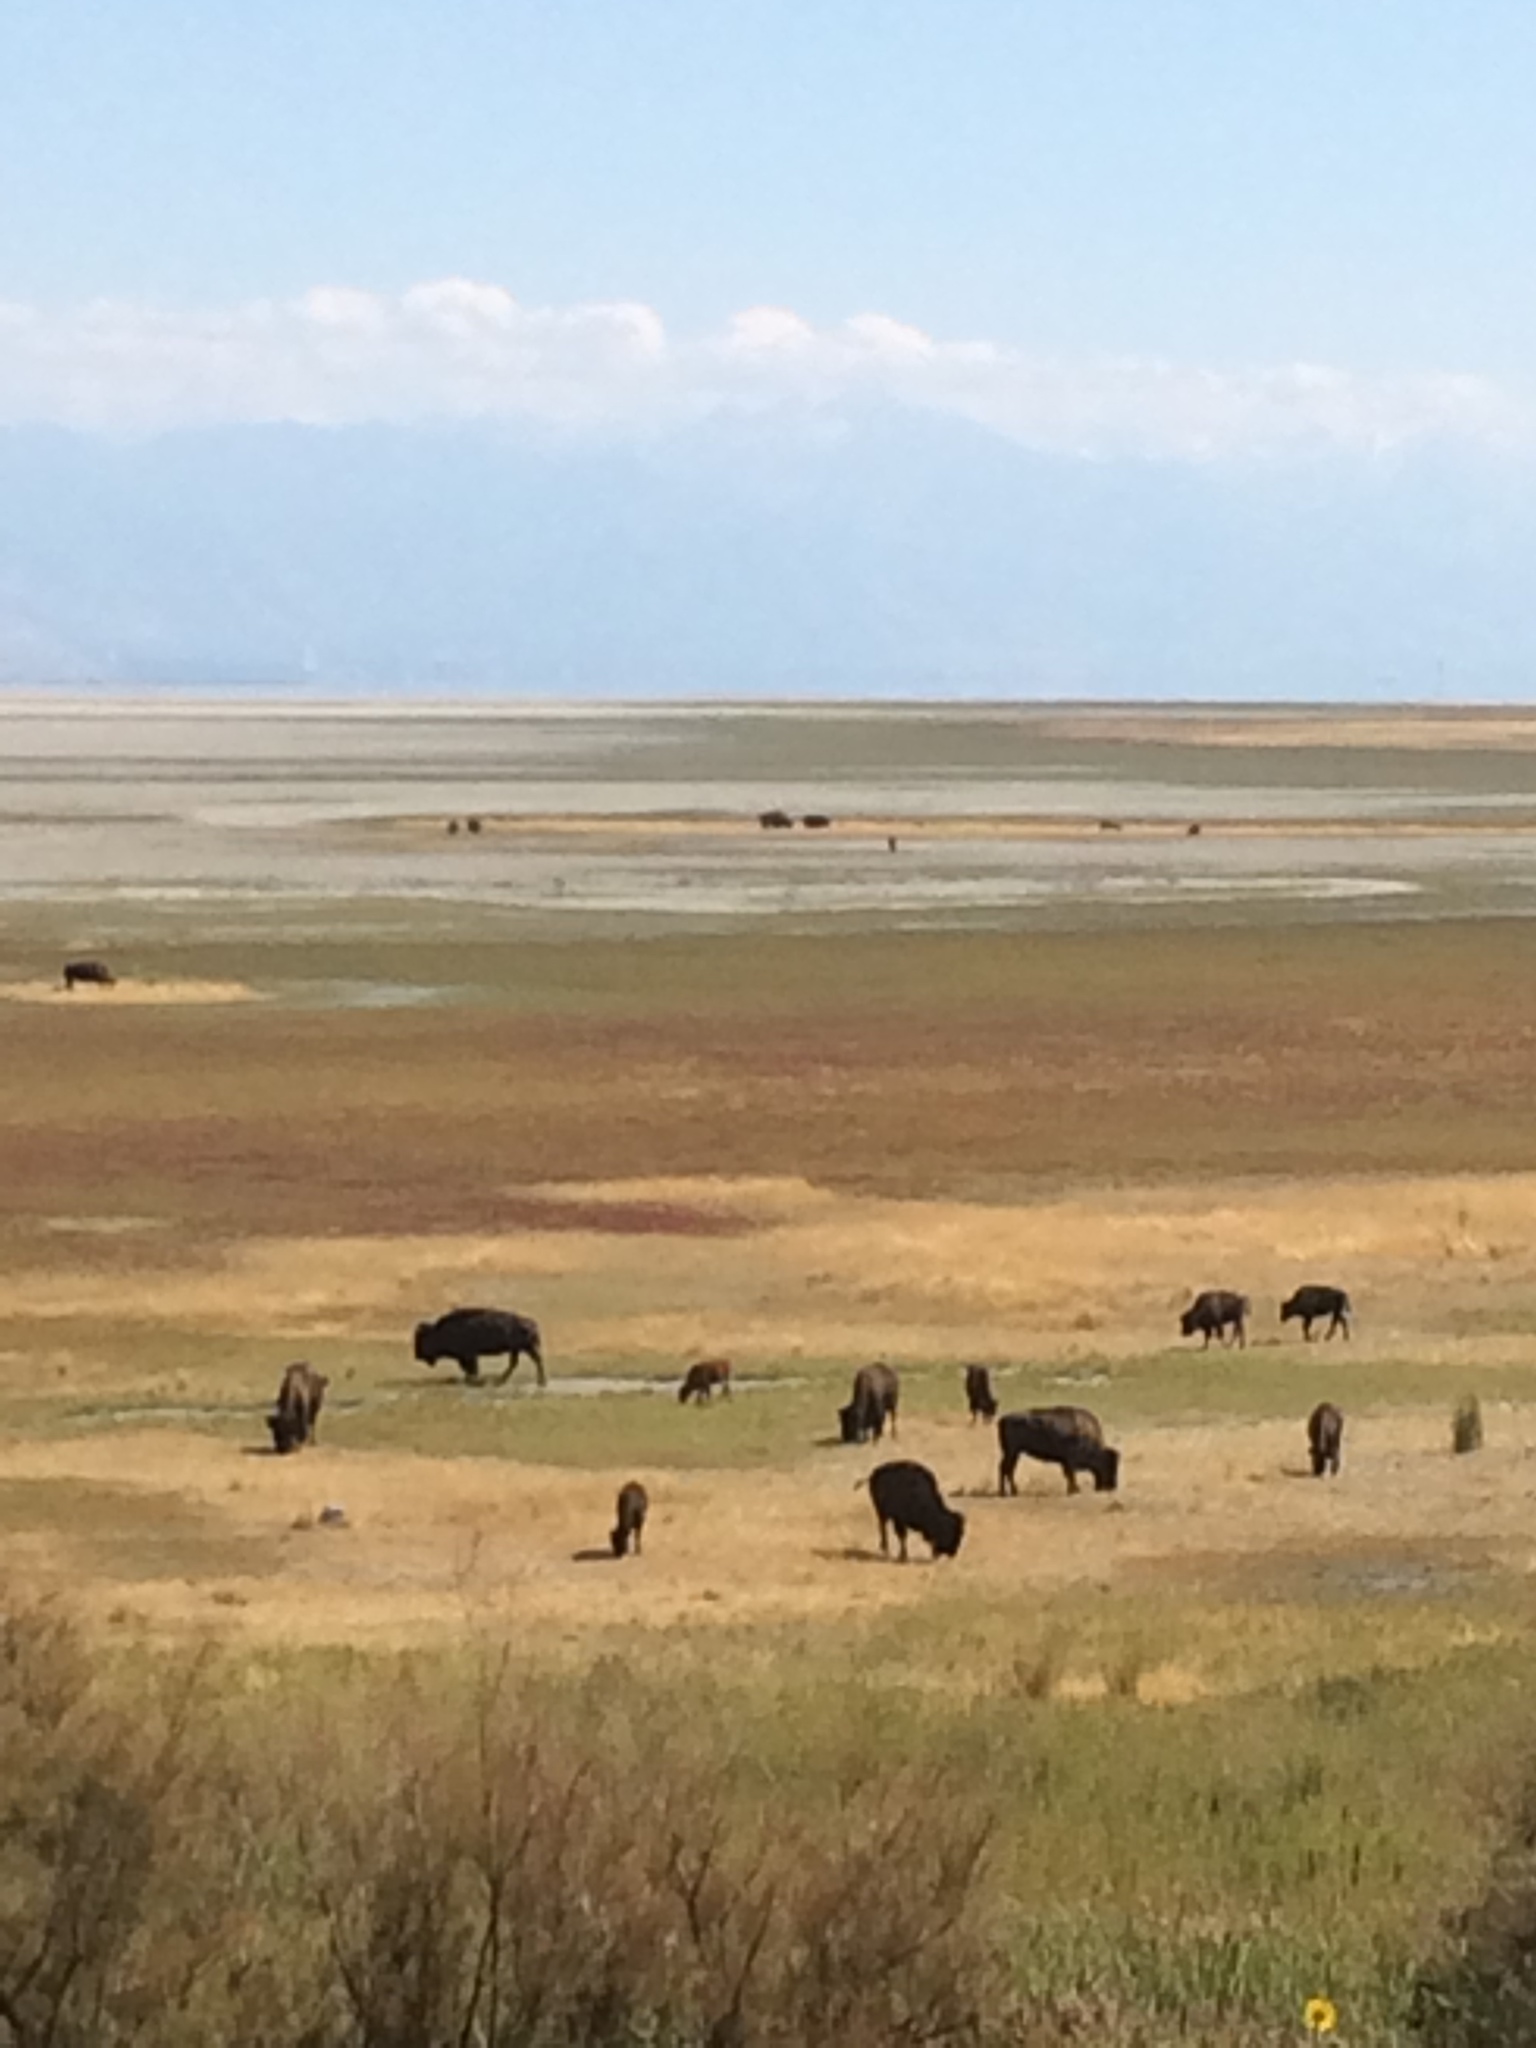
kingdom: Animalia
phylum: Chordata
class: Mammalia
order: Artiodactyla
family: Bovidae
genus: Bison
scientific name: Bison bison
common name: American bison
